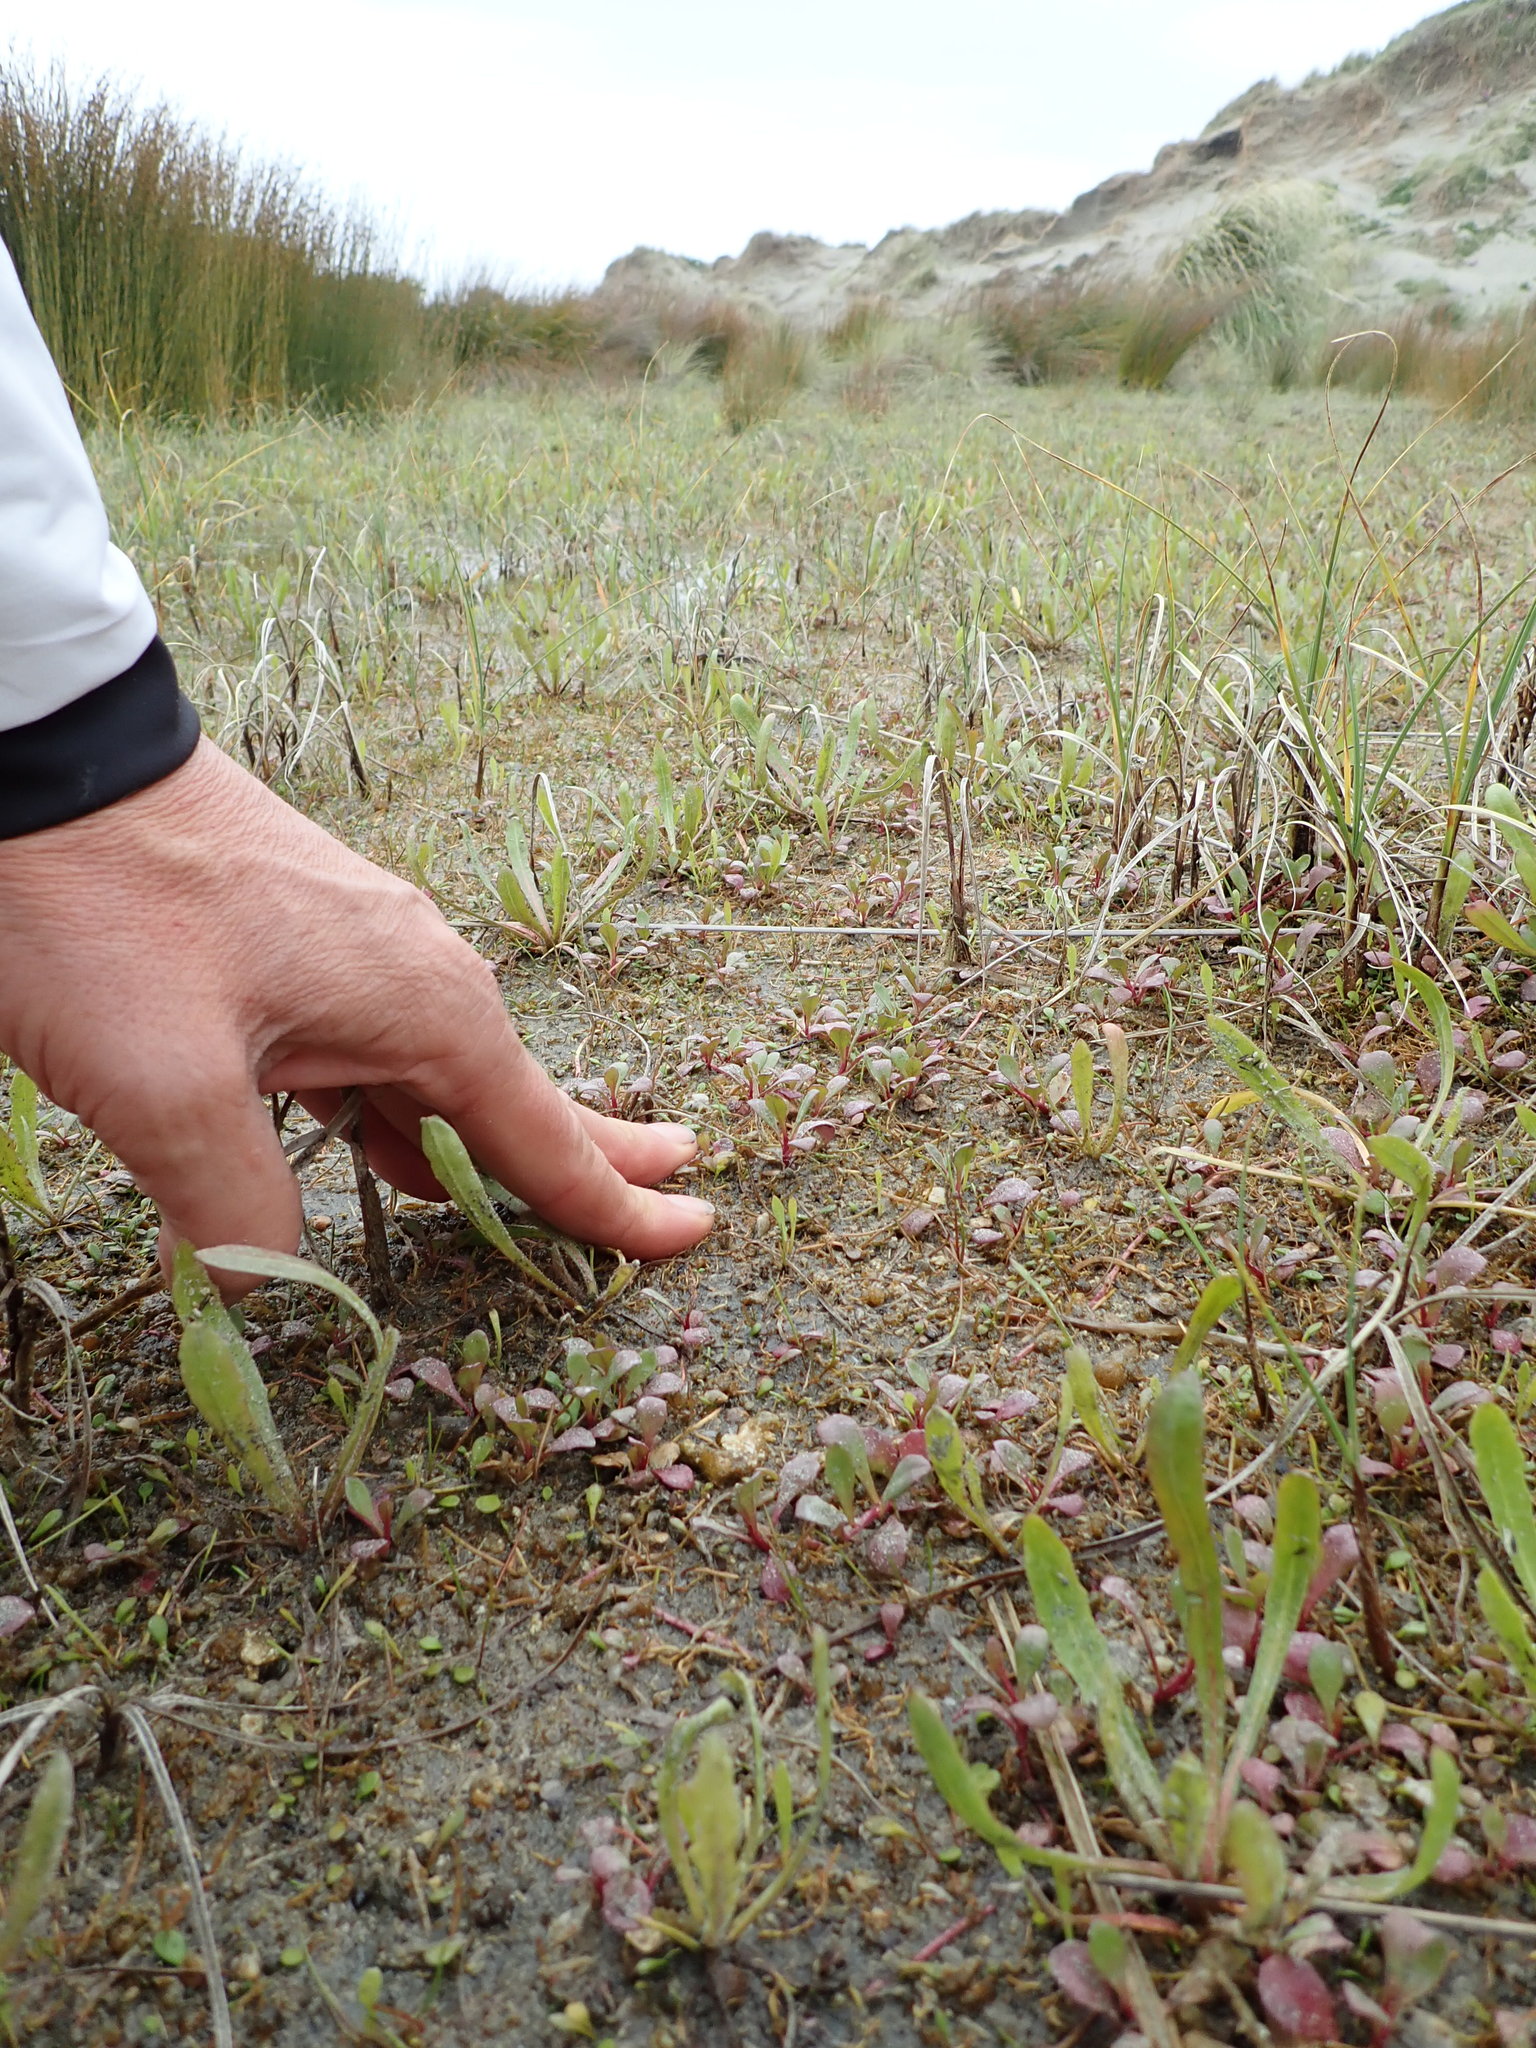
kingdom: Plantae
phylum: Tracheophyta
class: Magnoliopsida
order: Asterales
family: Campanulaceae
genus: Lobelia
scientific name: Lobelia anceps
